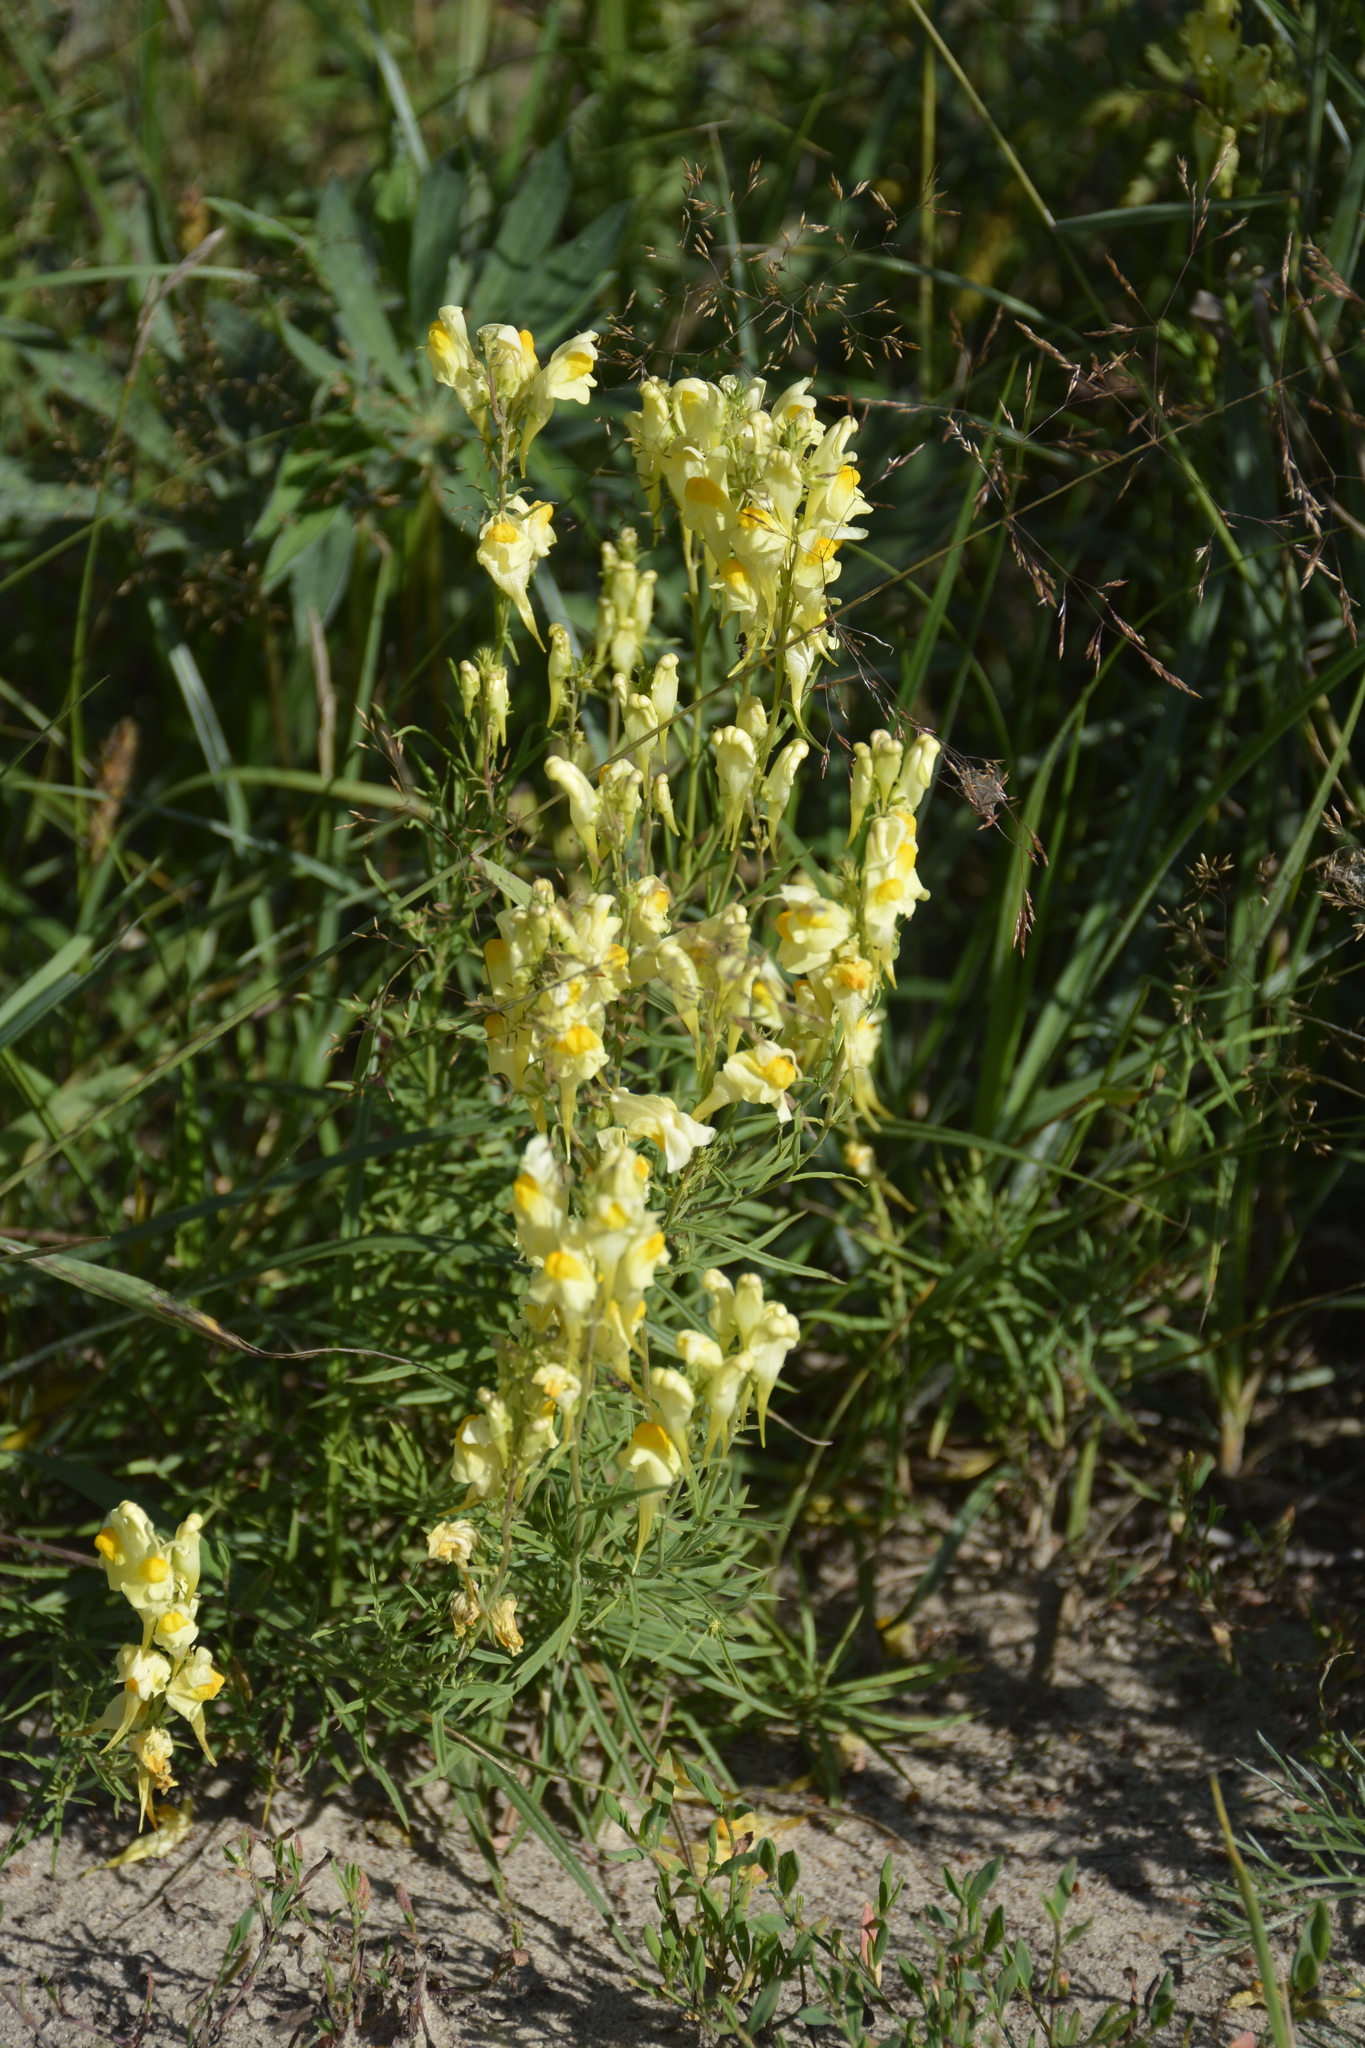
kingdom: Plantae
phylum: Tracheophyta
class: Magnoliopsida
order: Lamiales
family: Plantaginaceae
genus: Linaria
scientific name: Linaria vulgaris
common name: Butter and eggs
